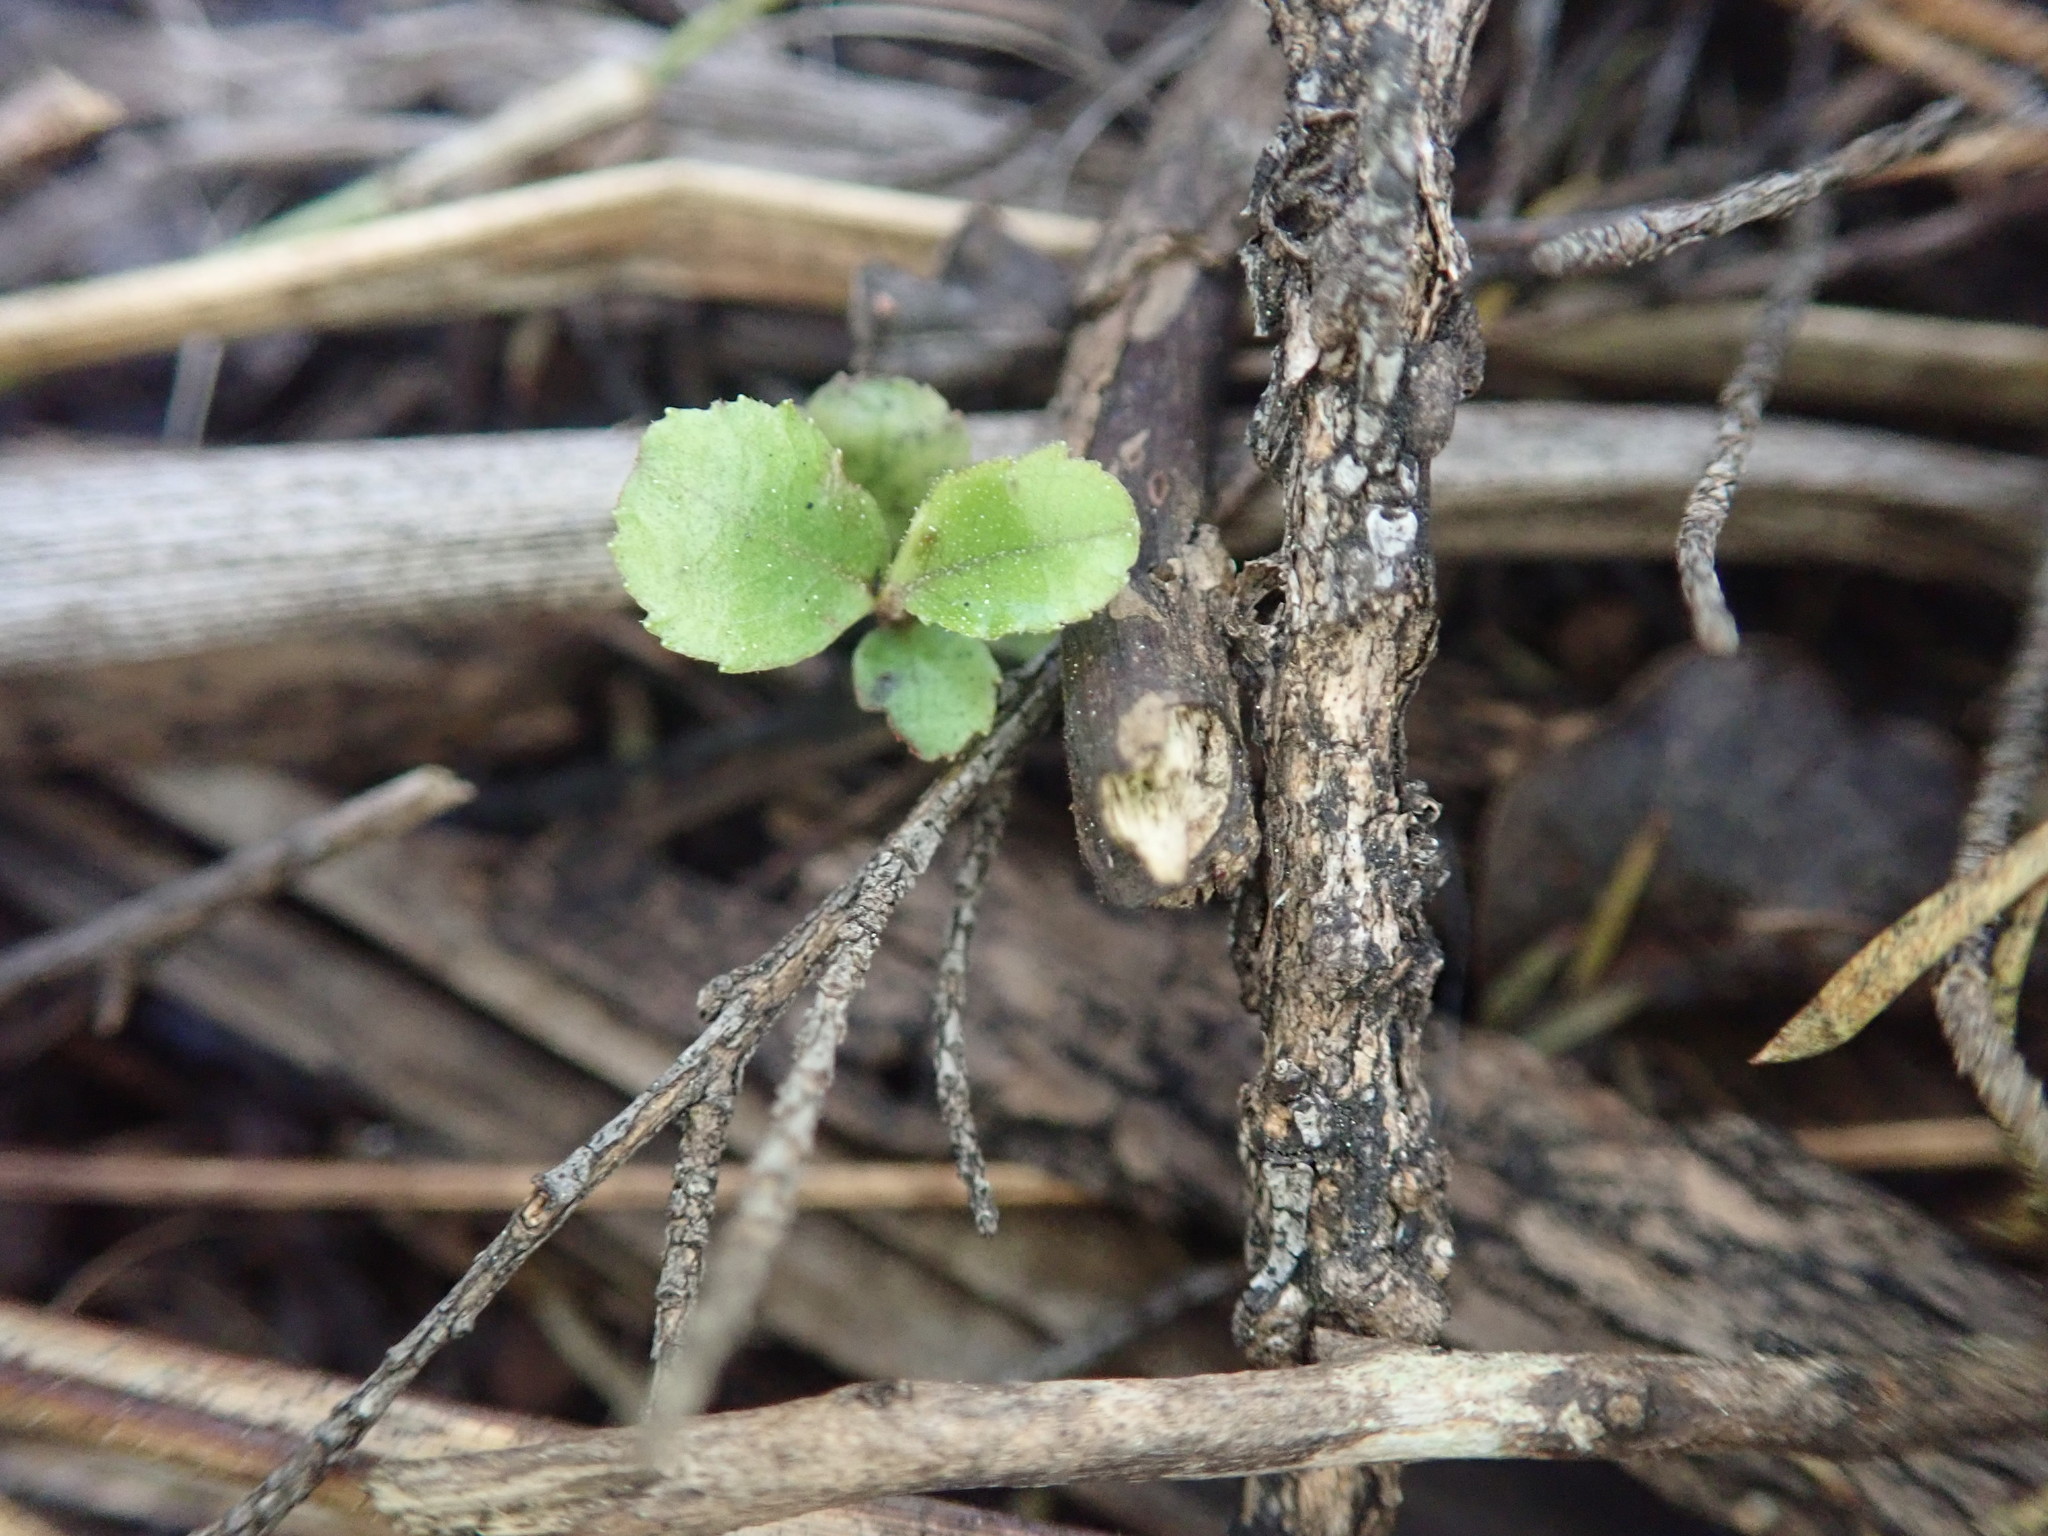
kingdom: Plantae
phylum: Tracheophyta
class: Magnoliopsida
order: Ericales
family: Primulaceae
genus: Myrsine
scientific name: Myrsine australis
